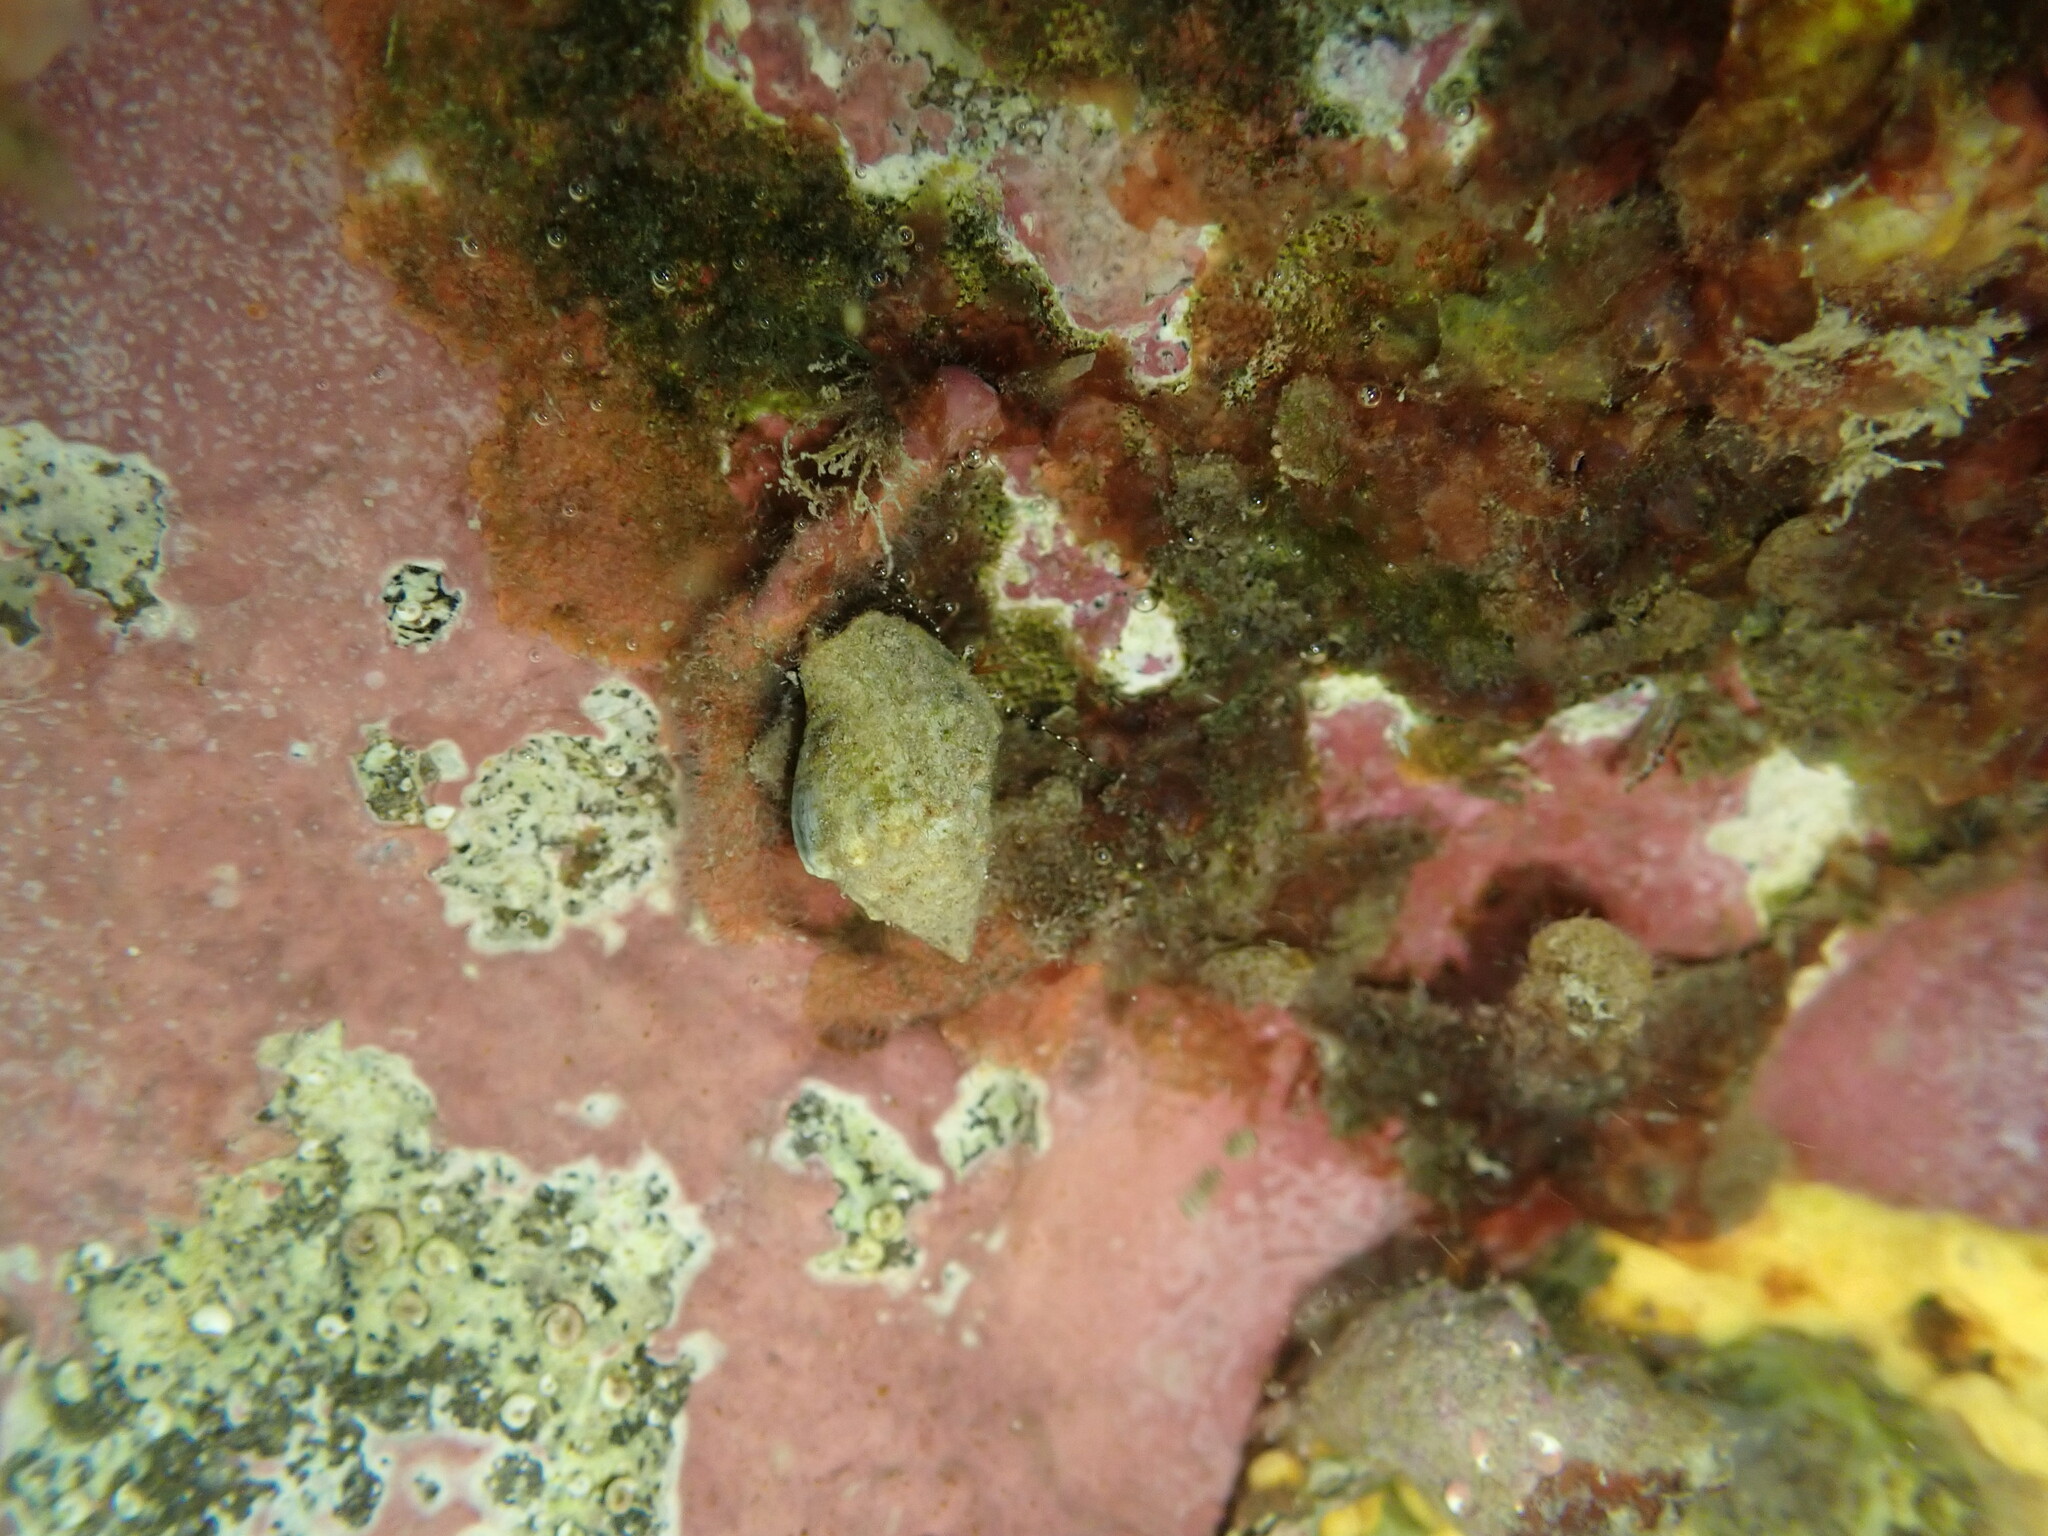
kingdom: Animalia
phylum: Arthropoda
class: Malacostraca
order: Decapoda
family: Paguridae
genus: Pagurus
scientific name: Pagurus traversi
